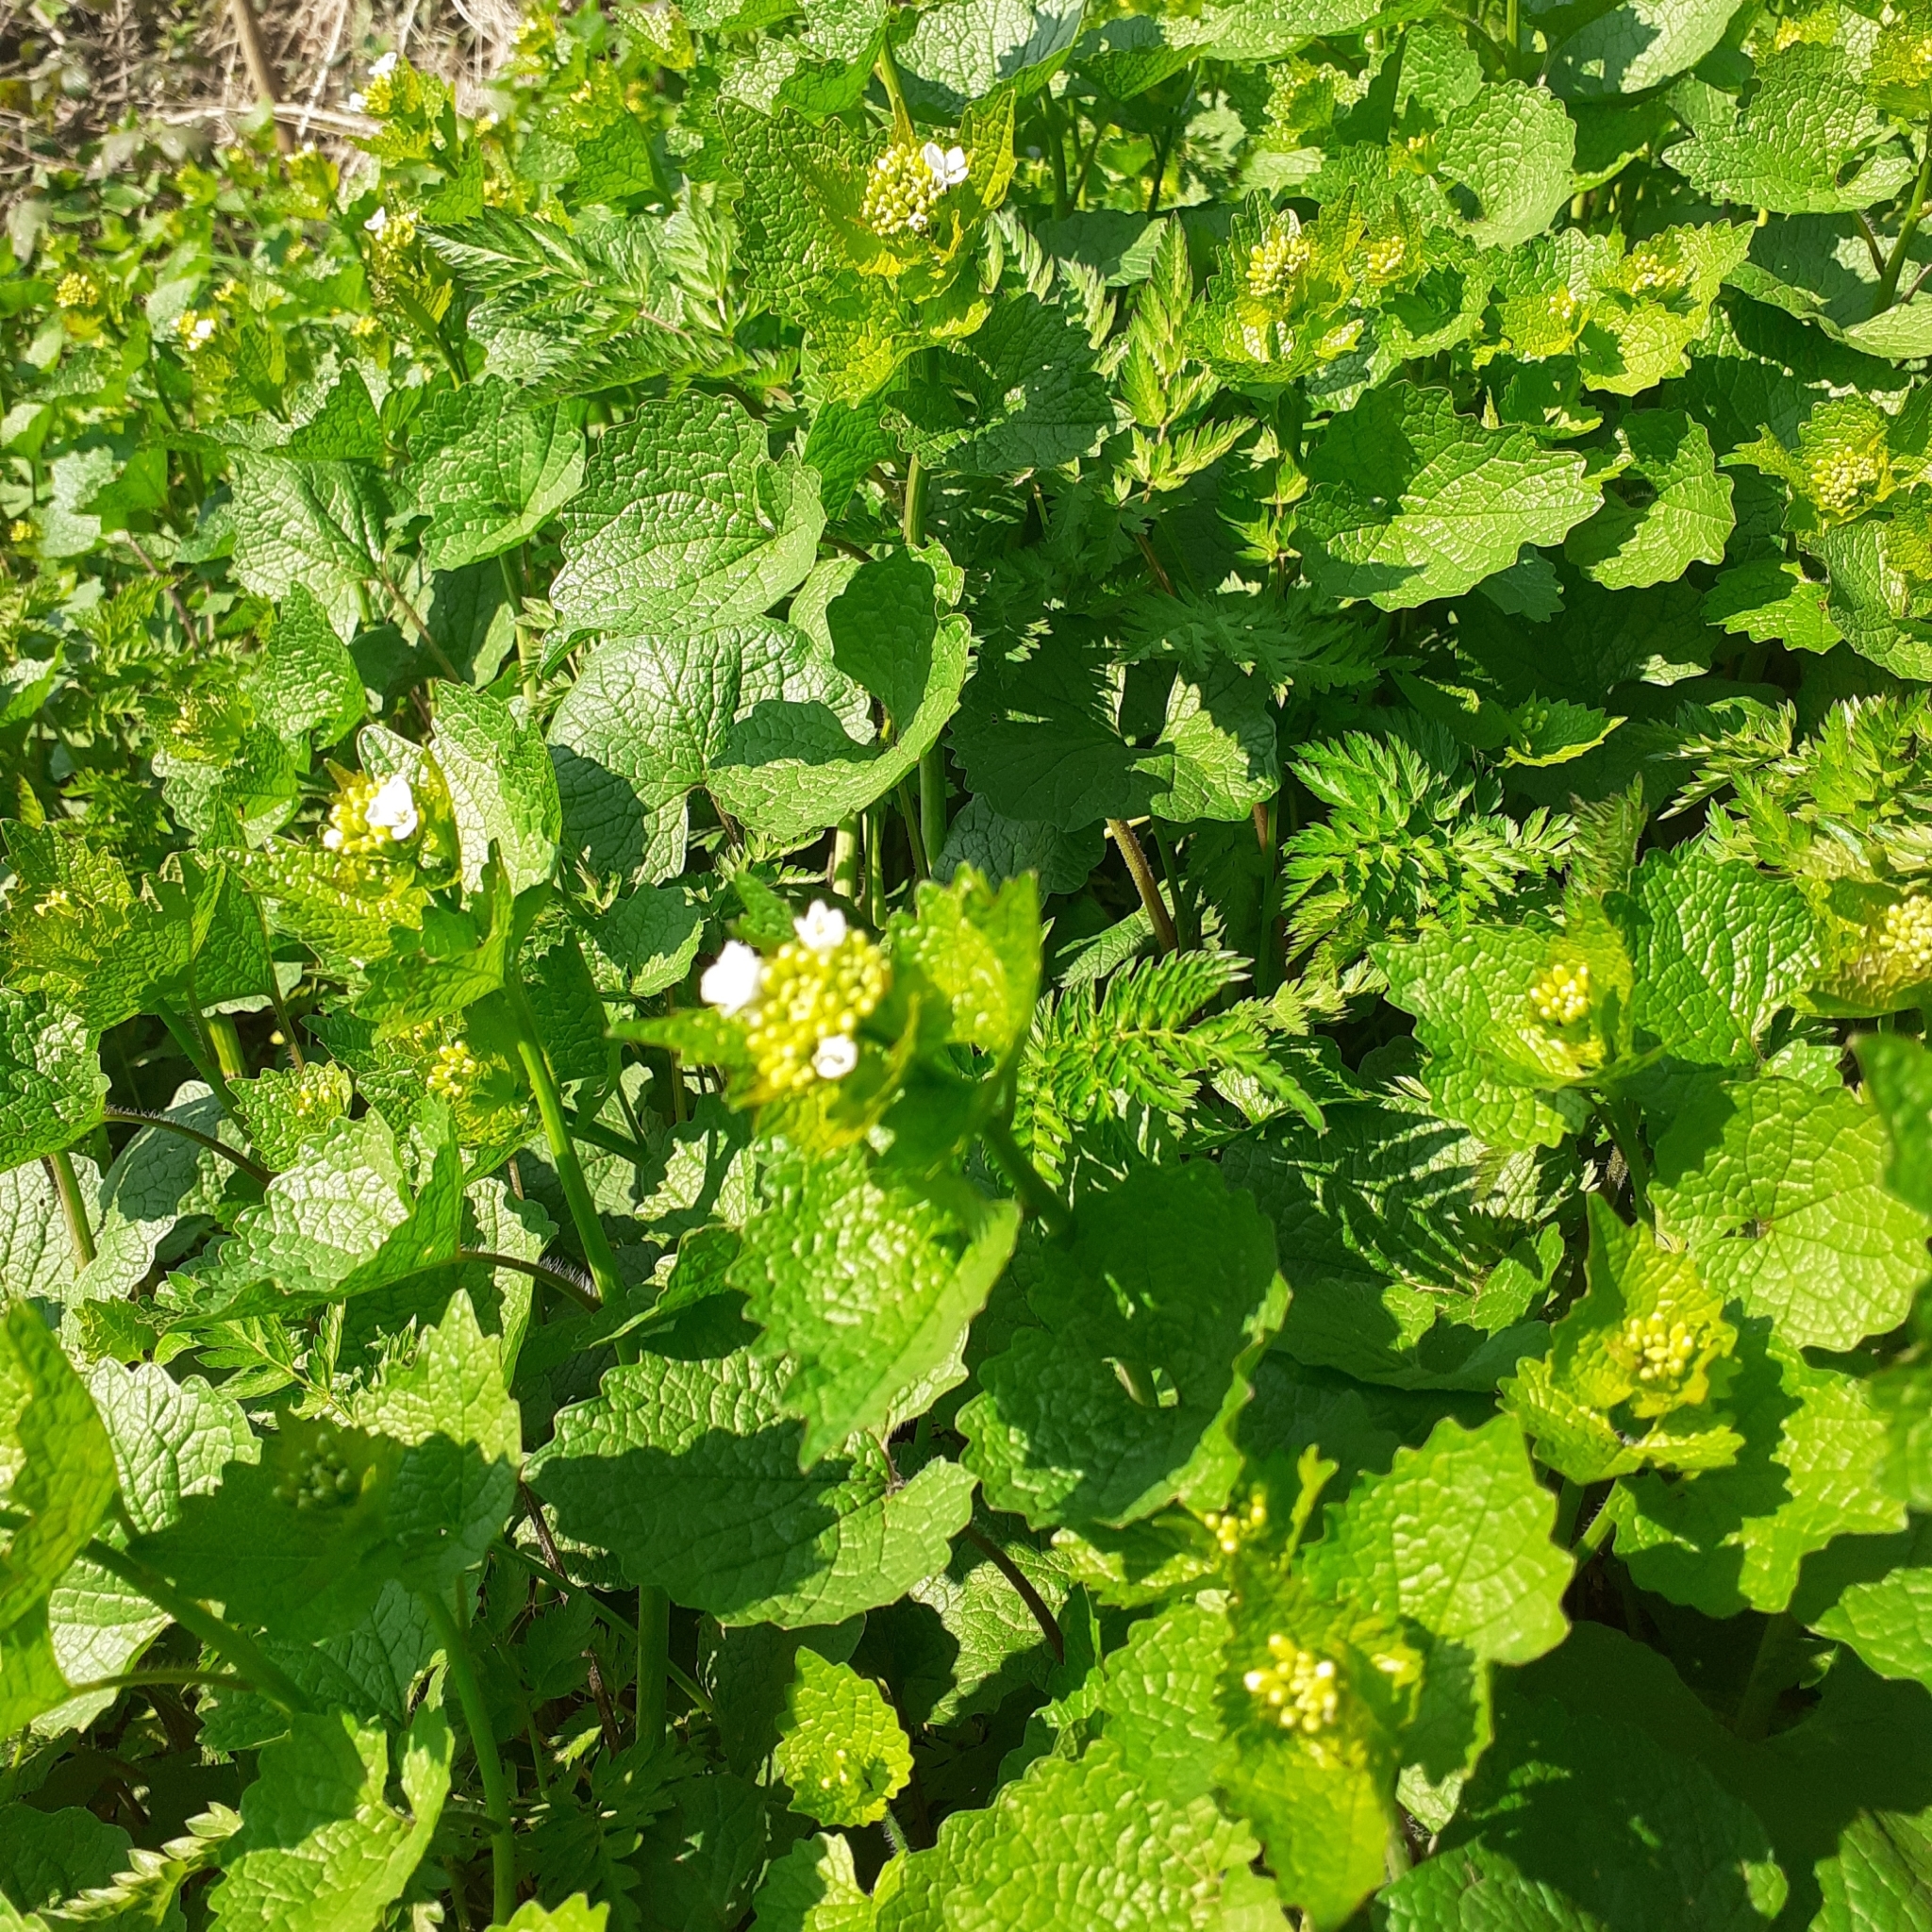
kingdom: Plantae
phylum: Tracheophyta
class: Magnoliopsida
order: Brassicales
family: Brassicaceae
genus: Alliaria
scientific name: Alliaria petiolata
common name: Garlic mustard
